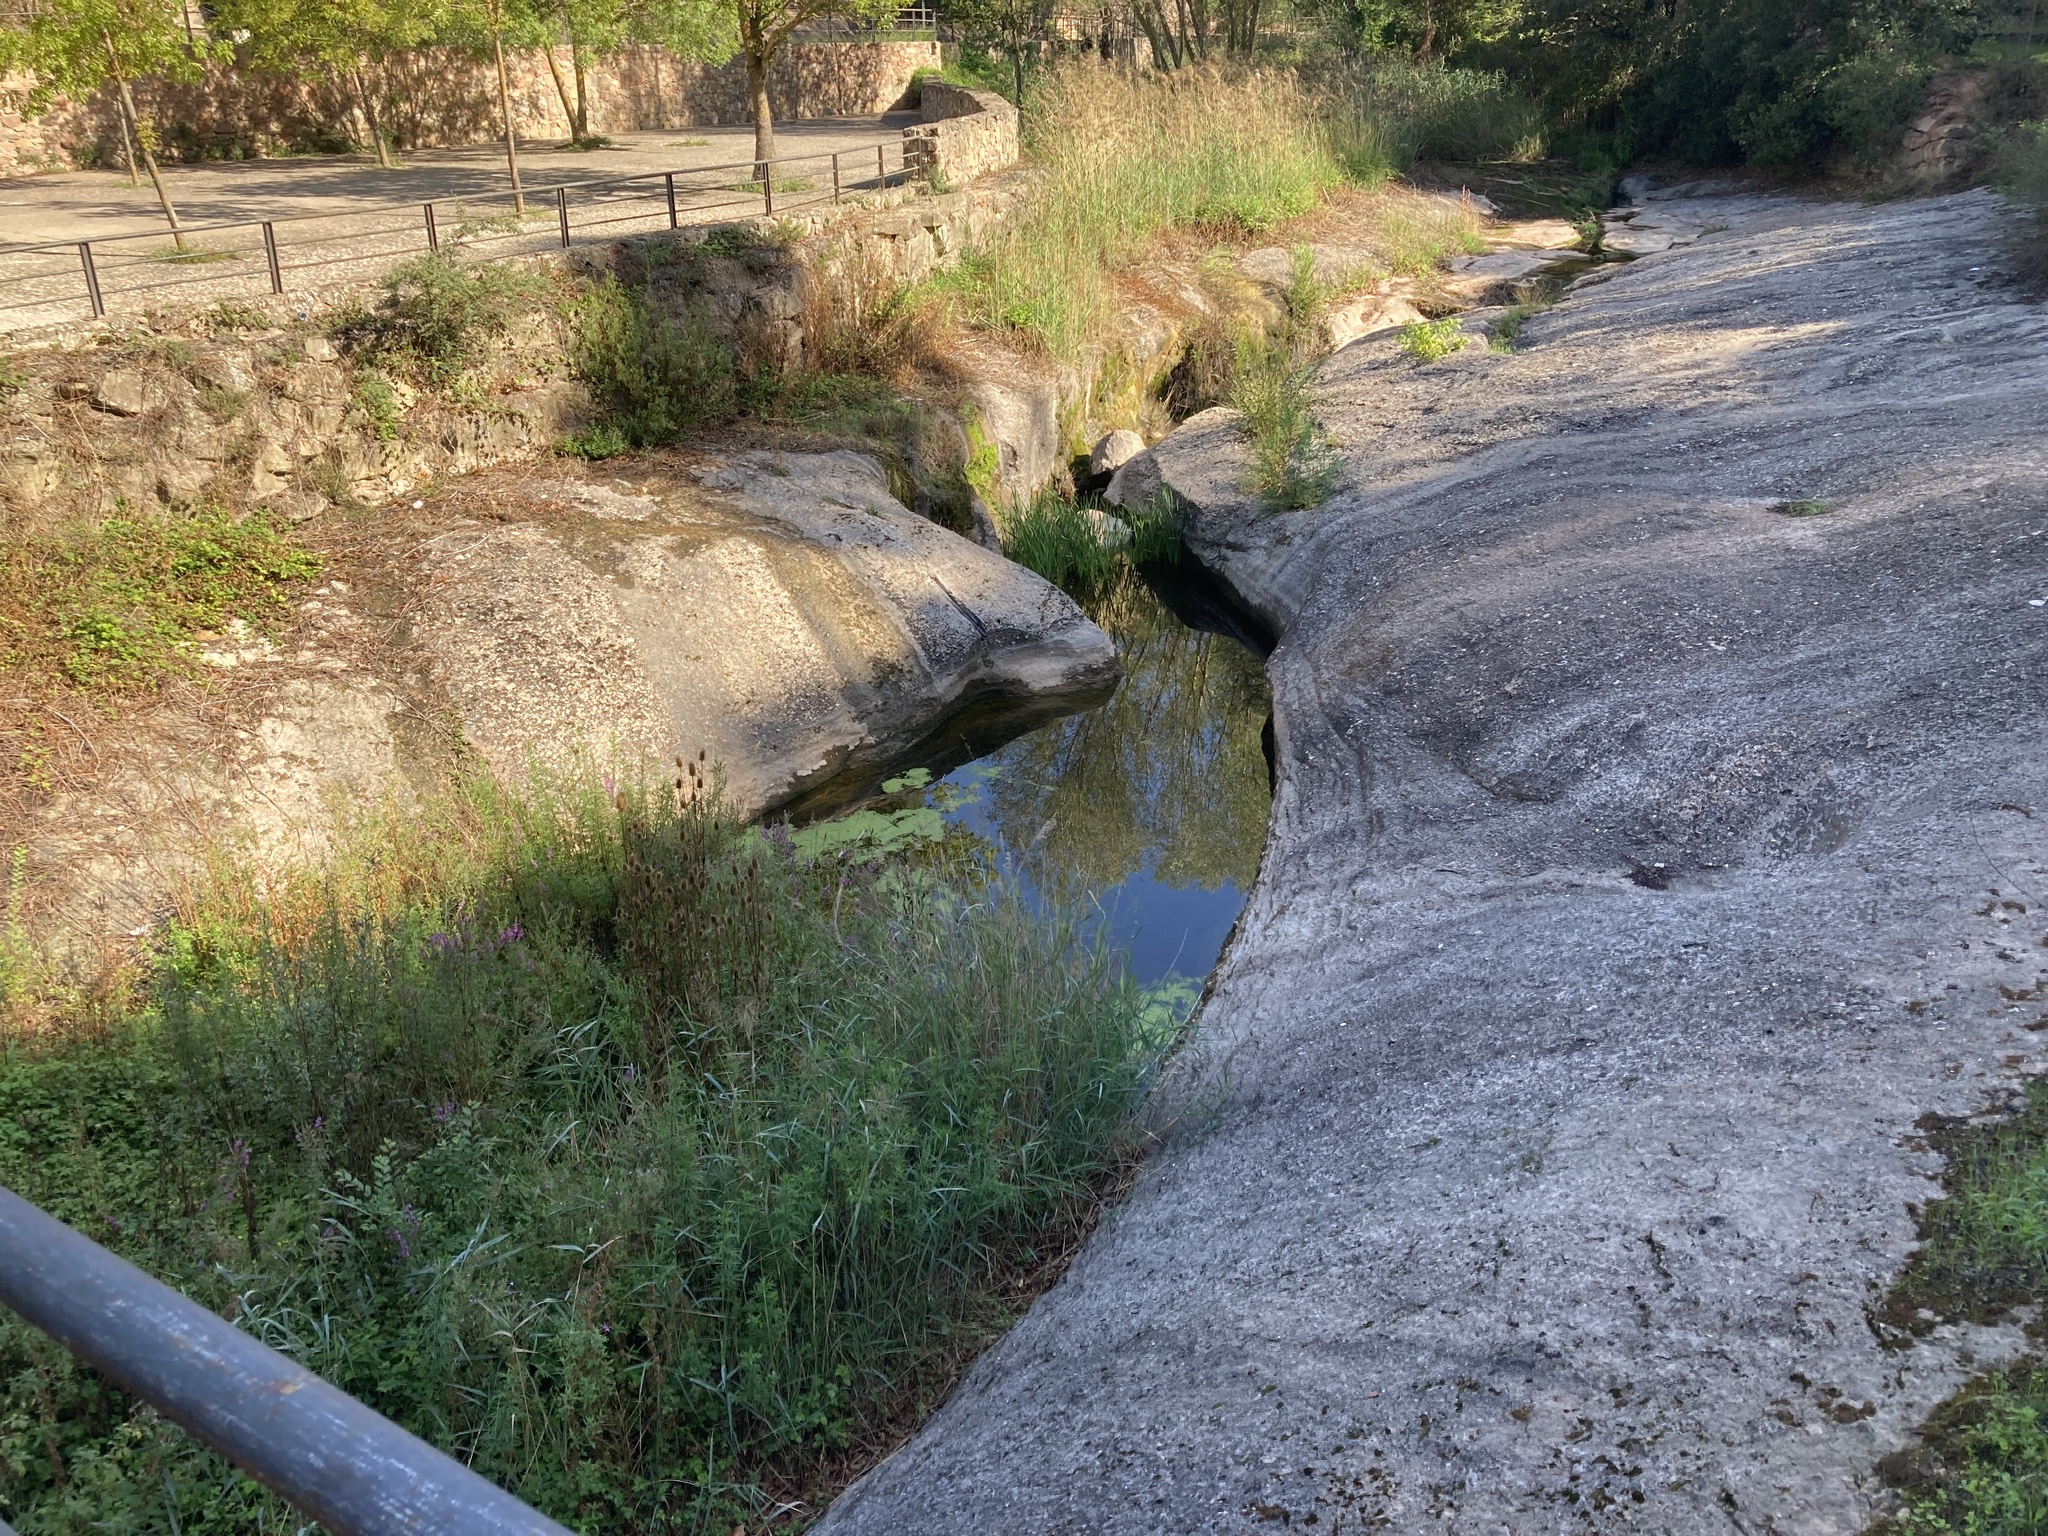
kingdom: Plantae
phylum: Tracheophyta
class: Liliopsida
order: Alismatales
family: Araceae
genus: Lemna
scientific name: Lemna minor
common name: Common duckweed
